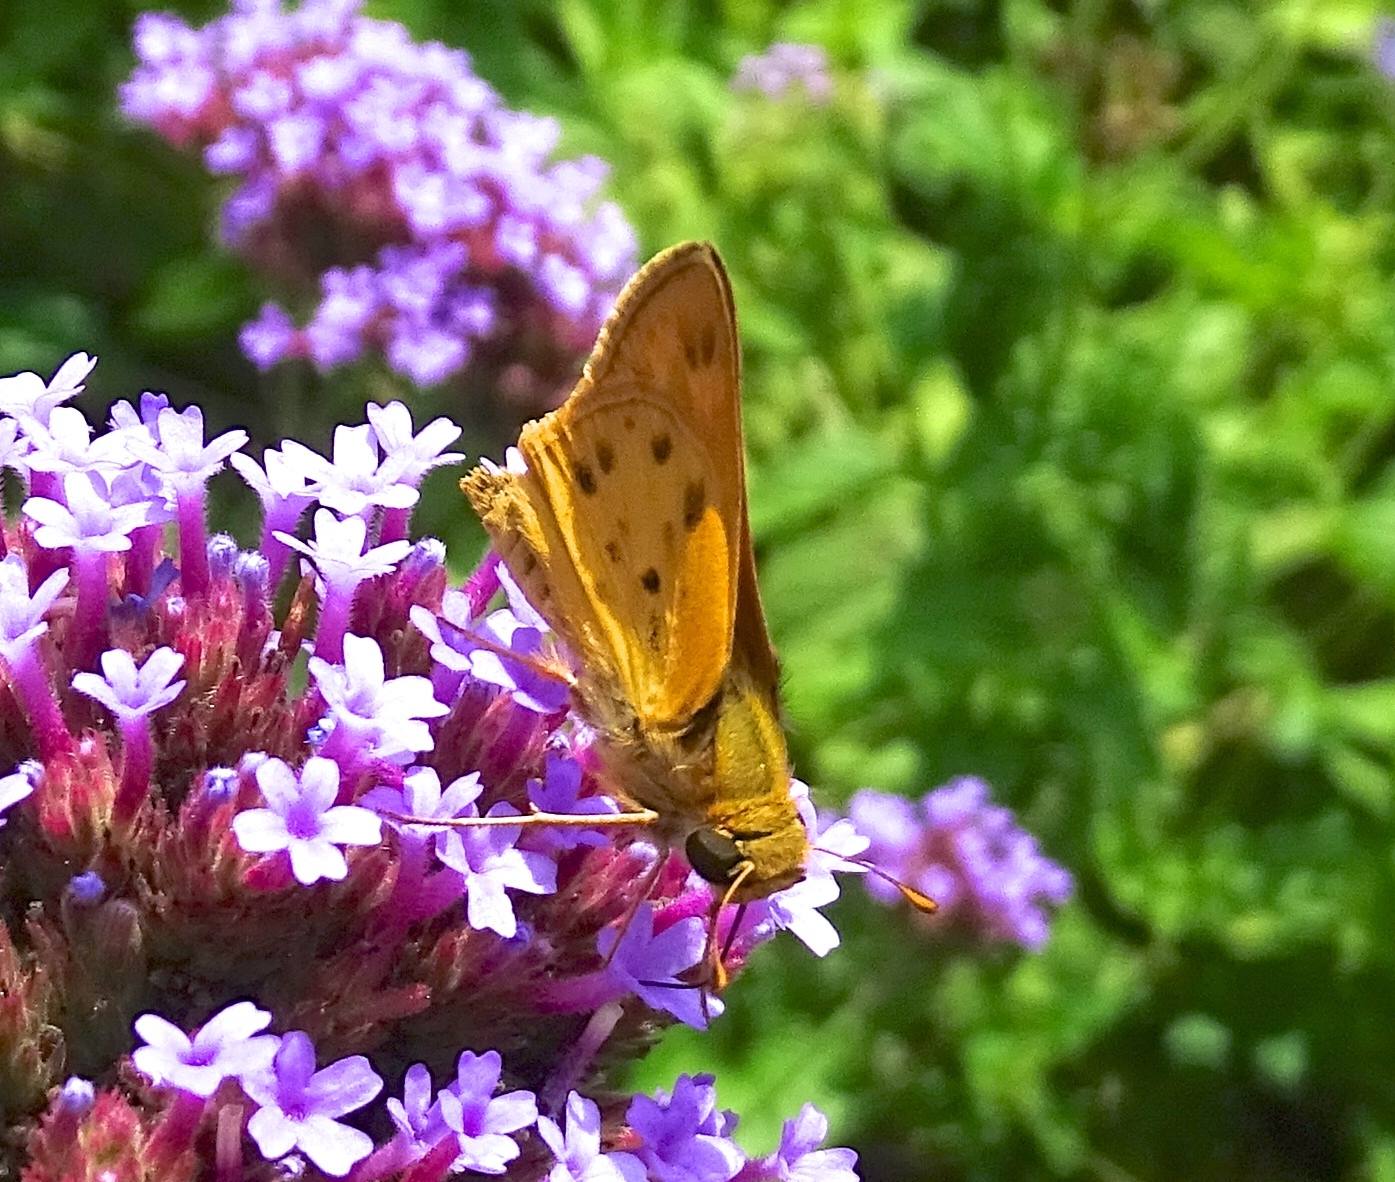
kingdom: Animalia
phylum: Arthropoda
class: Insecta
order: Lepidoptera
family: Hesperiidae
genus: Hylephila
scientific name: Hylephila phyleus
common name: Fiery skipper
